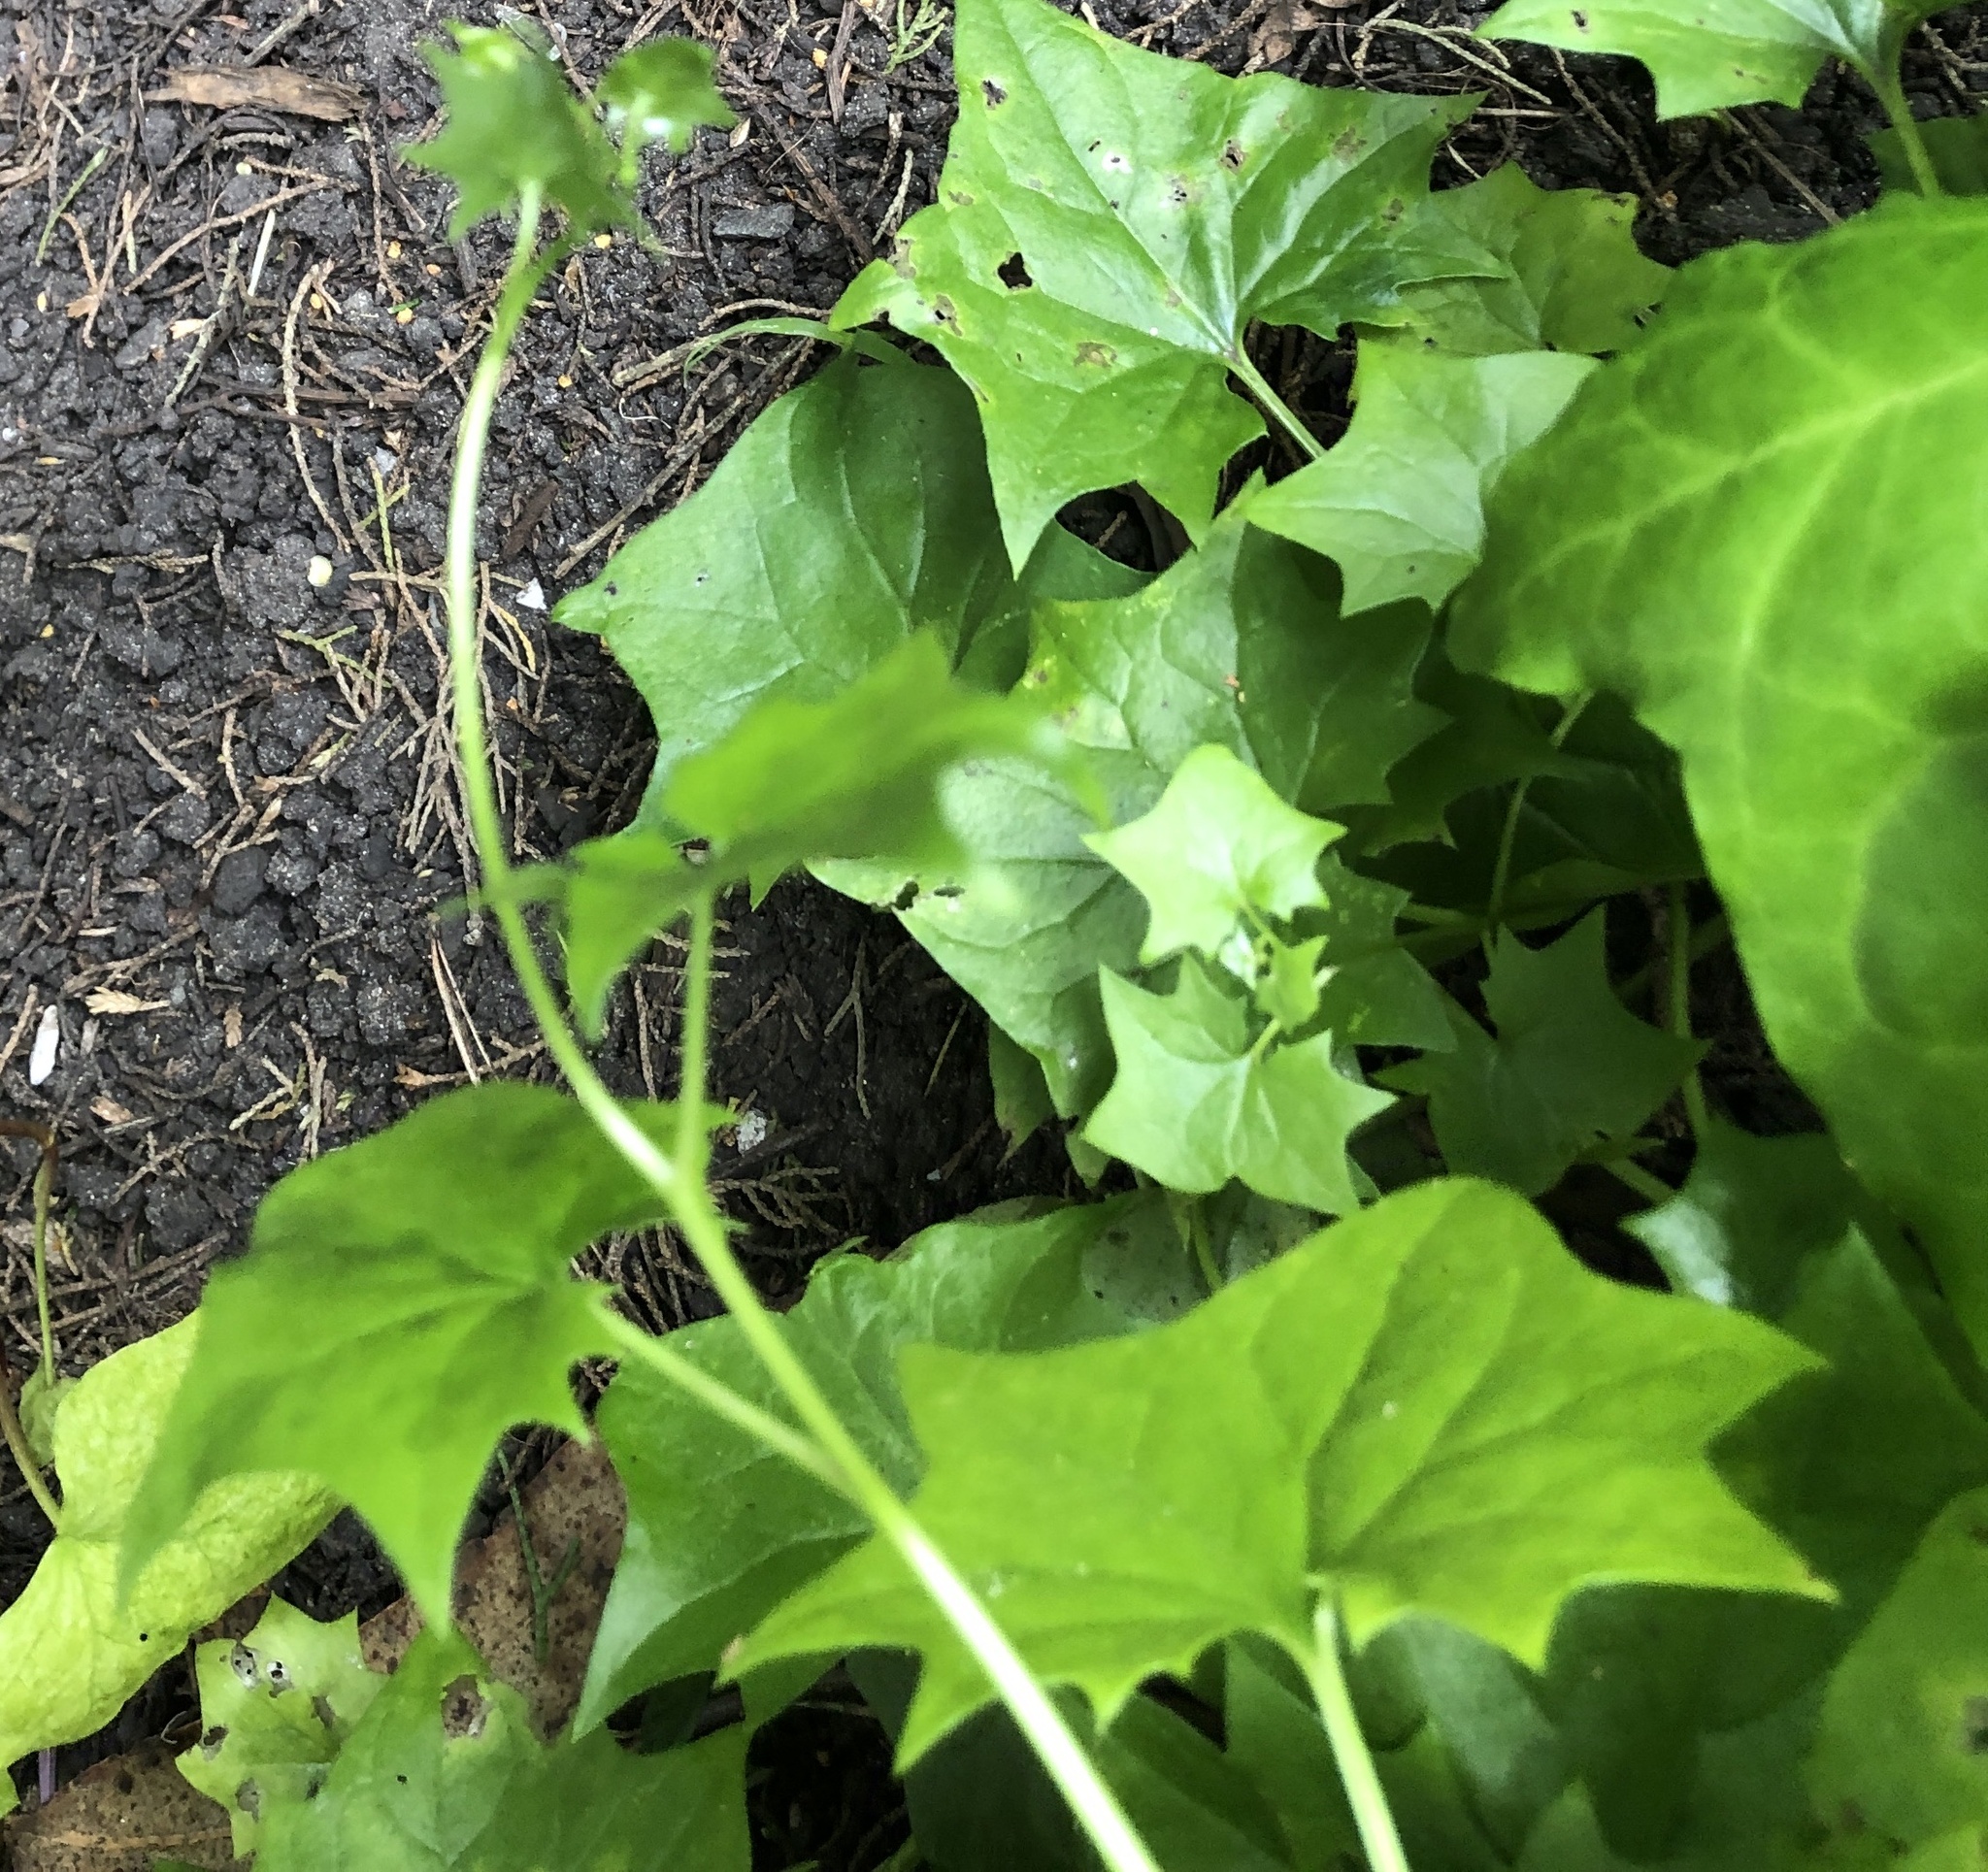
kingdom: Plantae
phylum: Tracheophyta
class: Magnoliopsida
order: Asterales
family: Asteraceae
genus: Delairea
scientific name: Delairea odorata
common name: Cape-ivy
